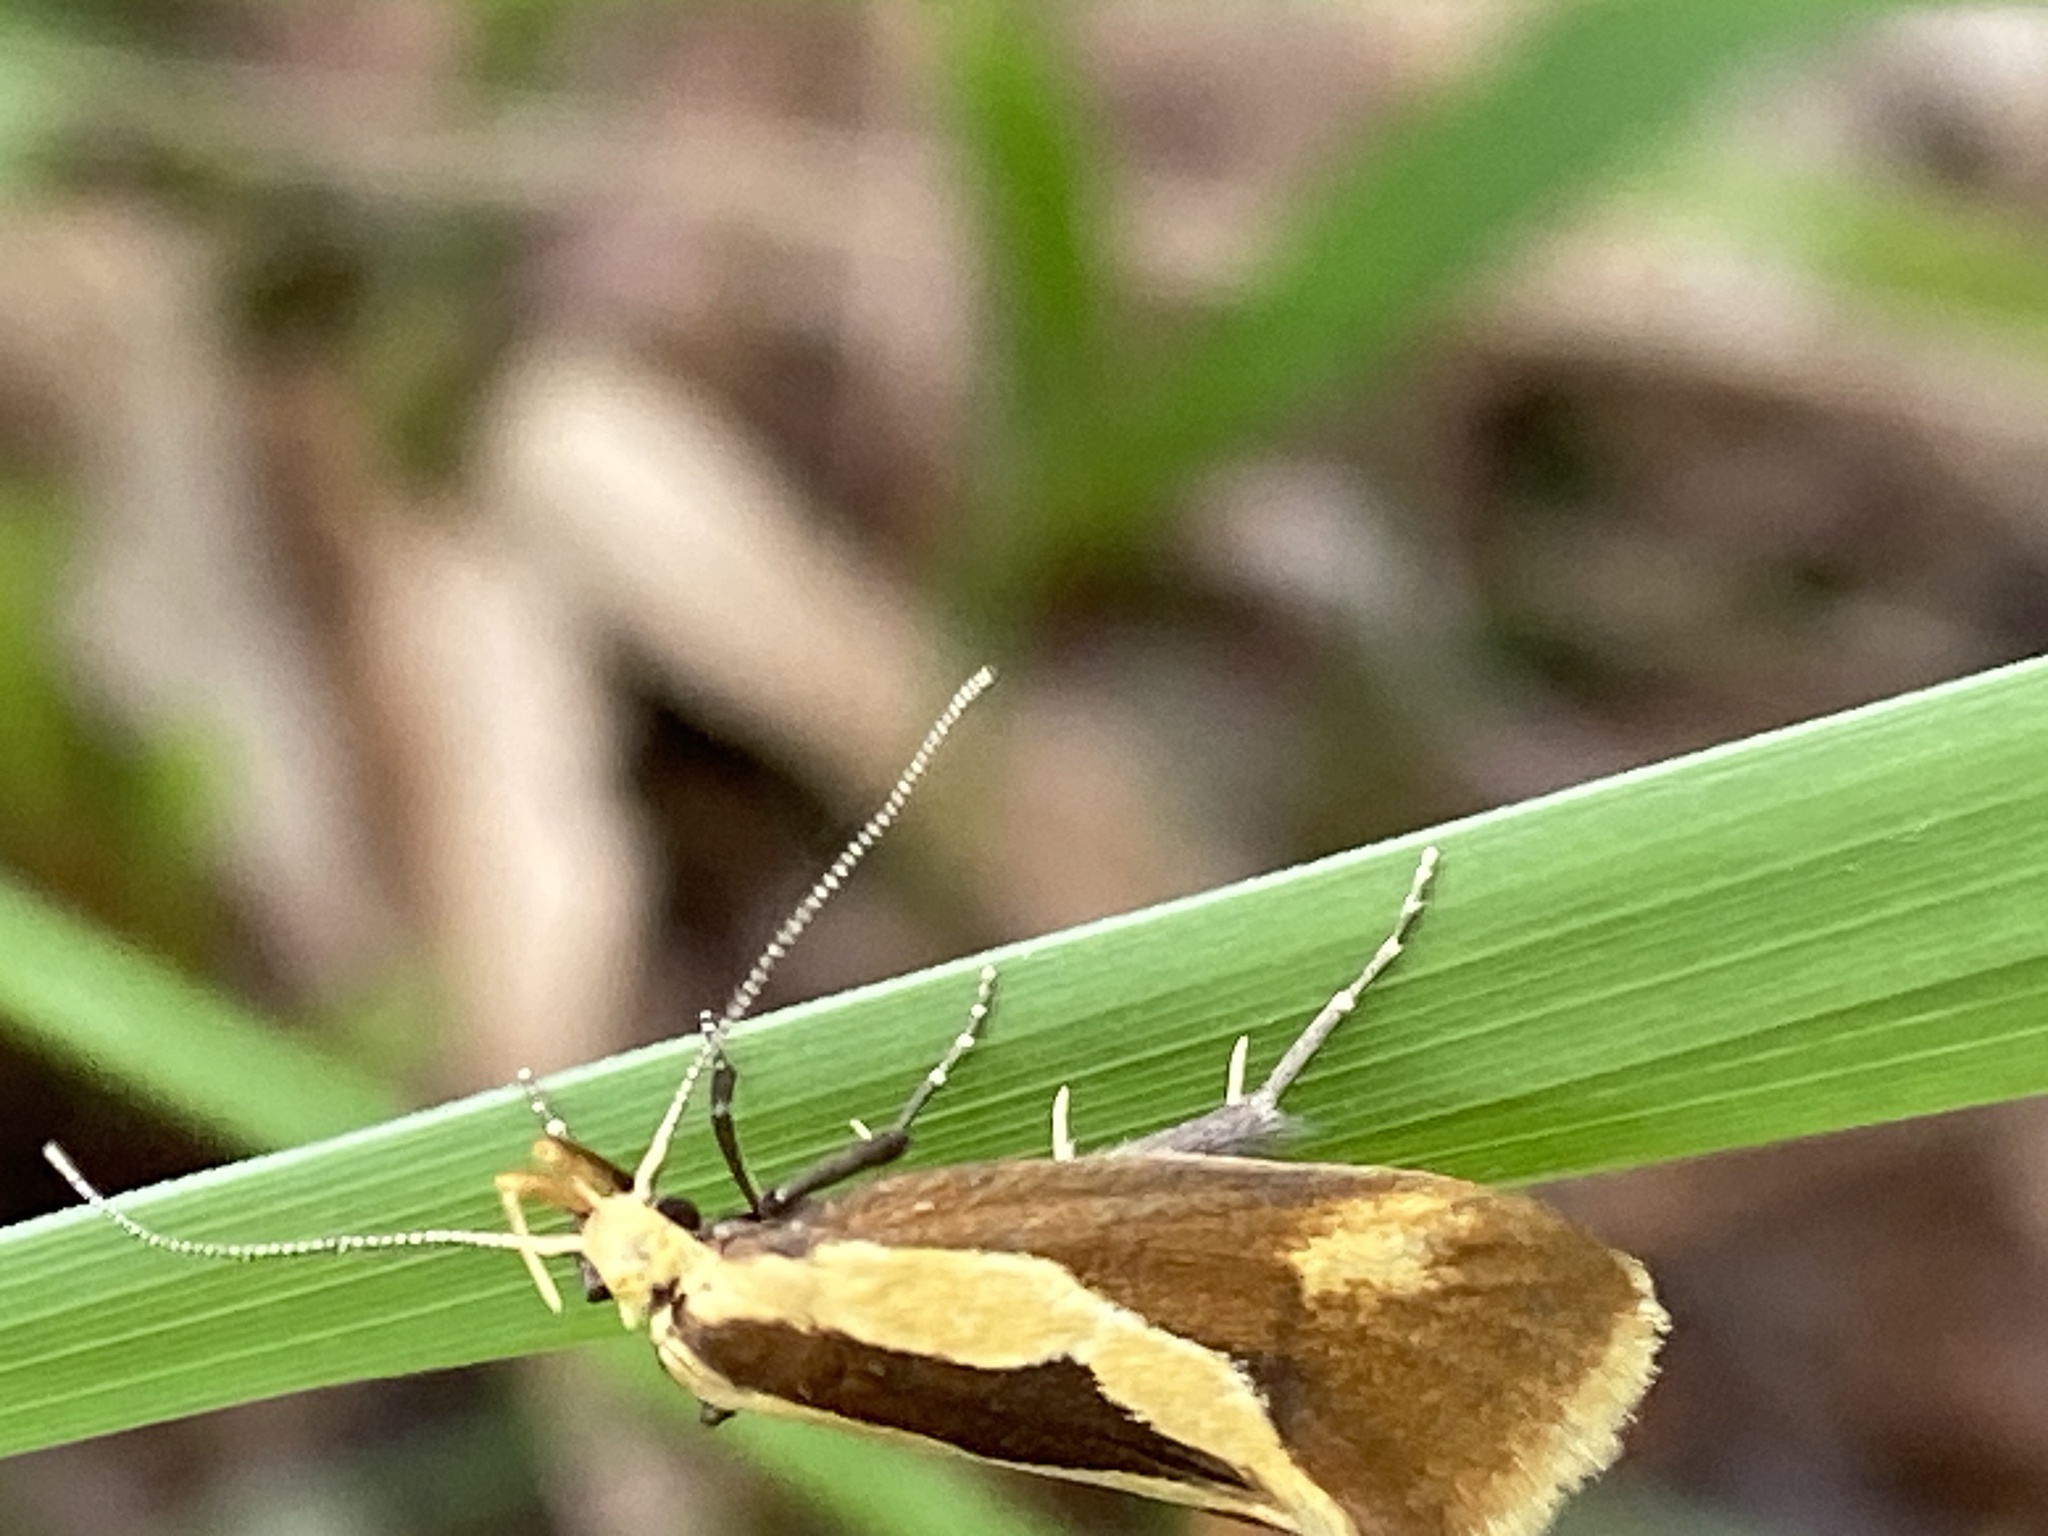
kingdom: Animalia
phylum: Arthropoda
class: Insecta
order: Lepidoptera
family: Oecophoridae
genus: Harpella
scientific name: Harpella forficella
